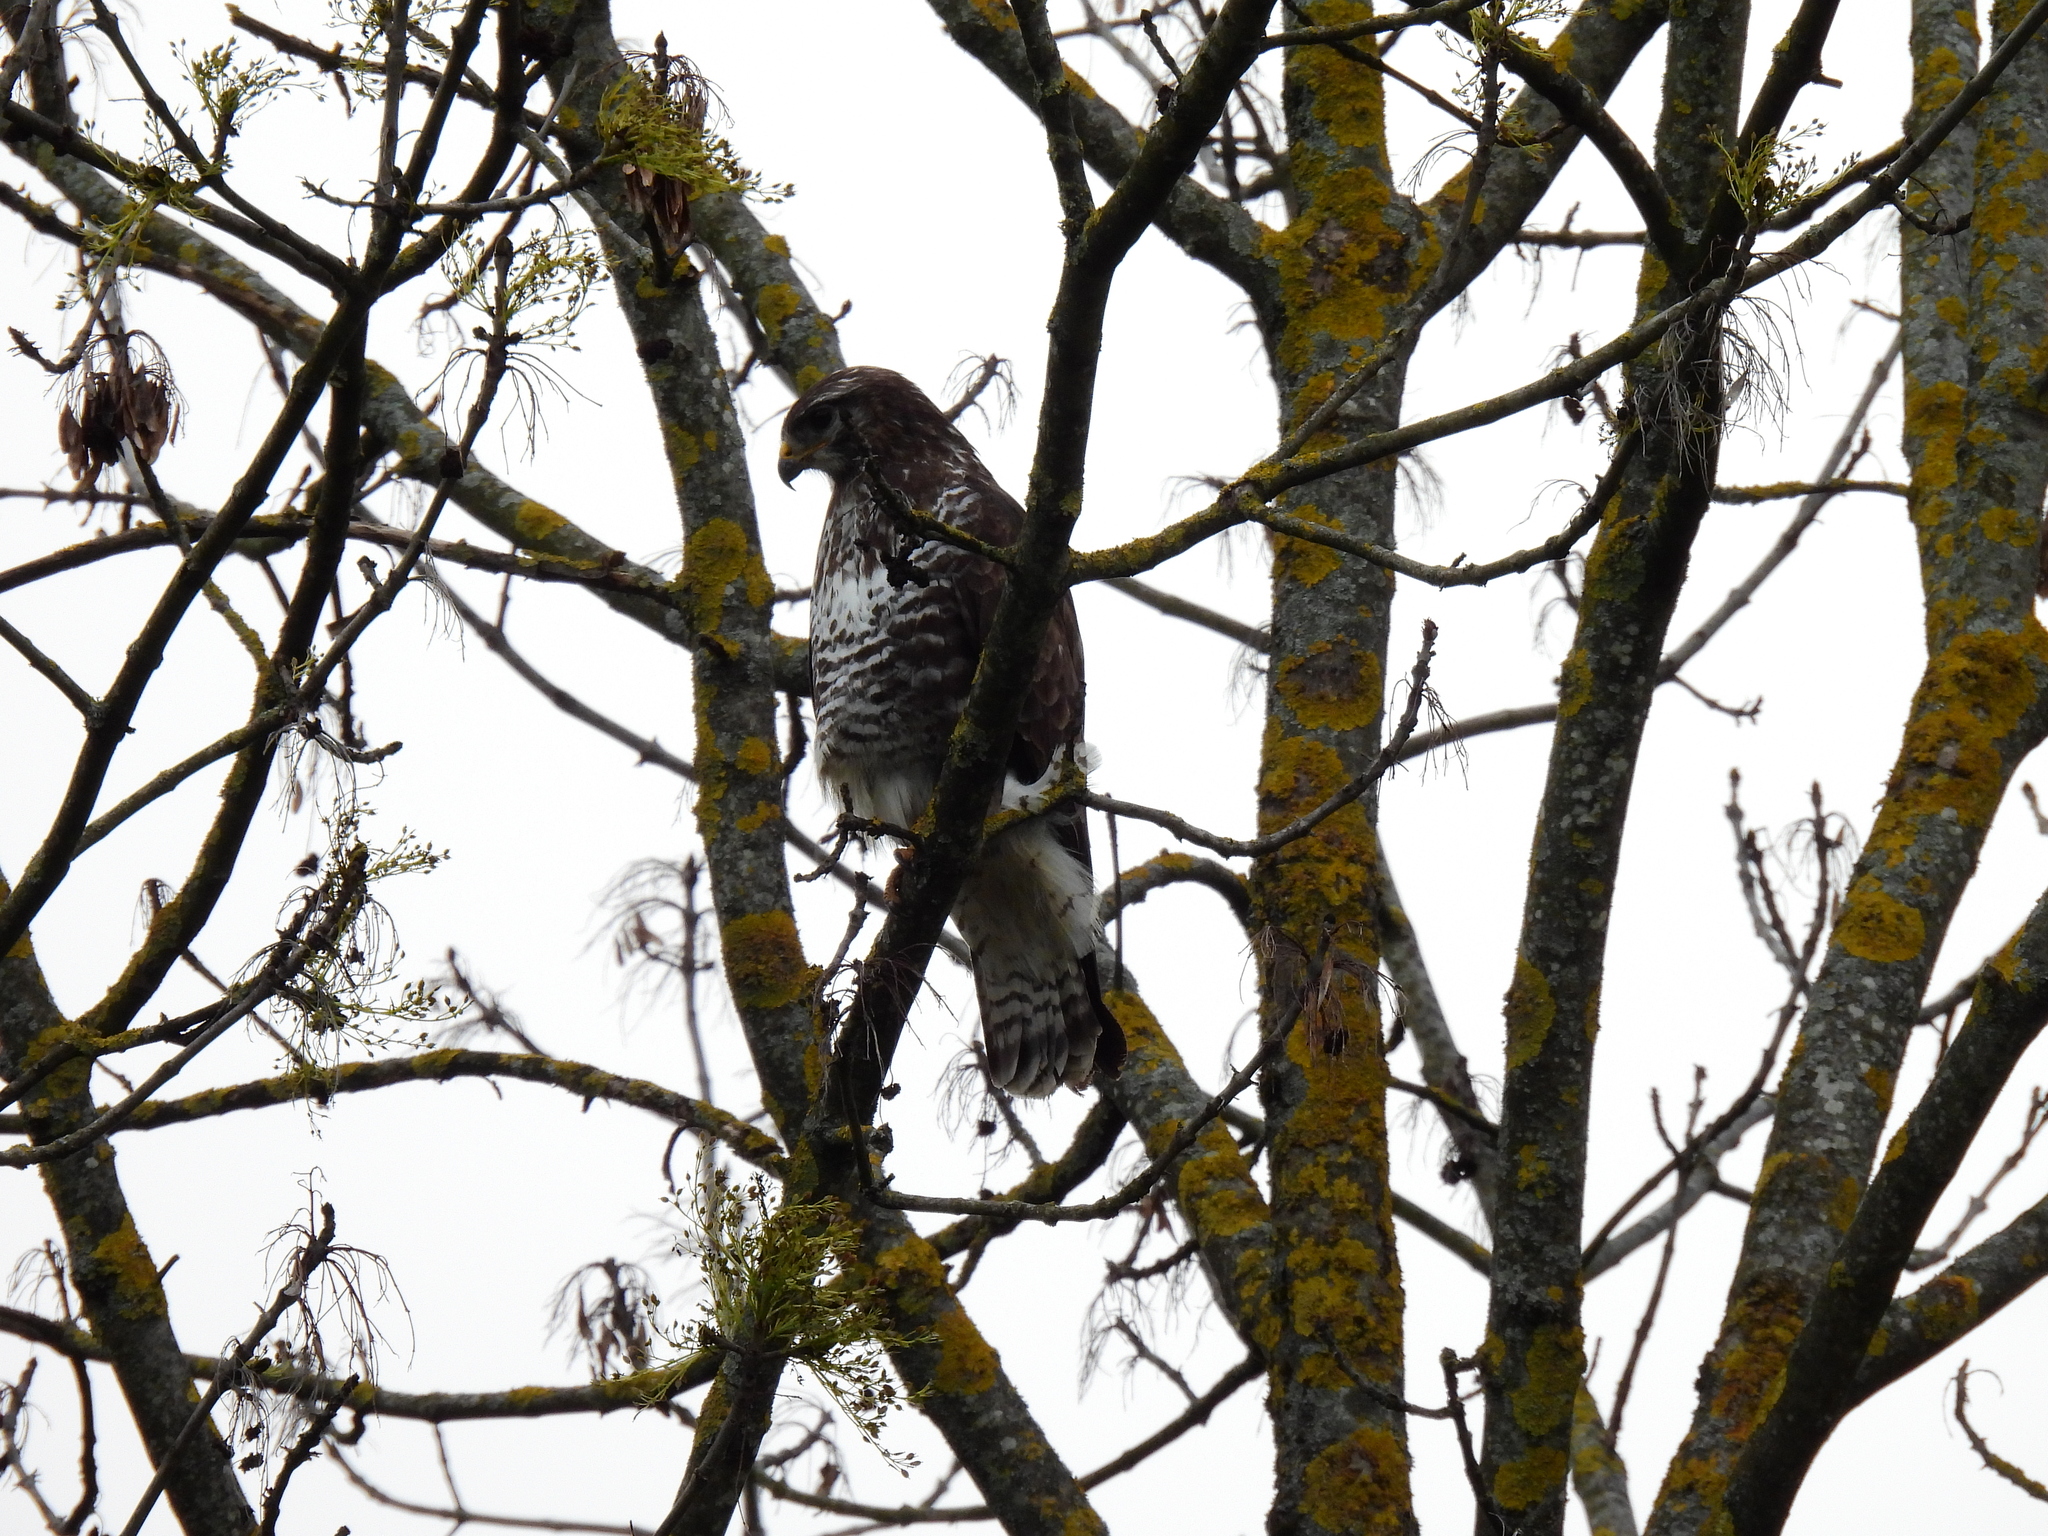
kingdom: Animalia
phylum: Chordata
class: Aves
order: Accipitriformes
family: Accipitridae
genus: Buteo
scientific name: Buteo buteo
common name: Common buzzard
